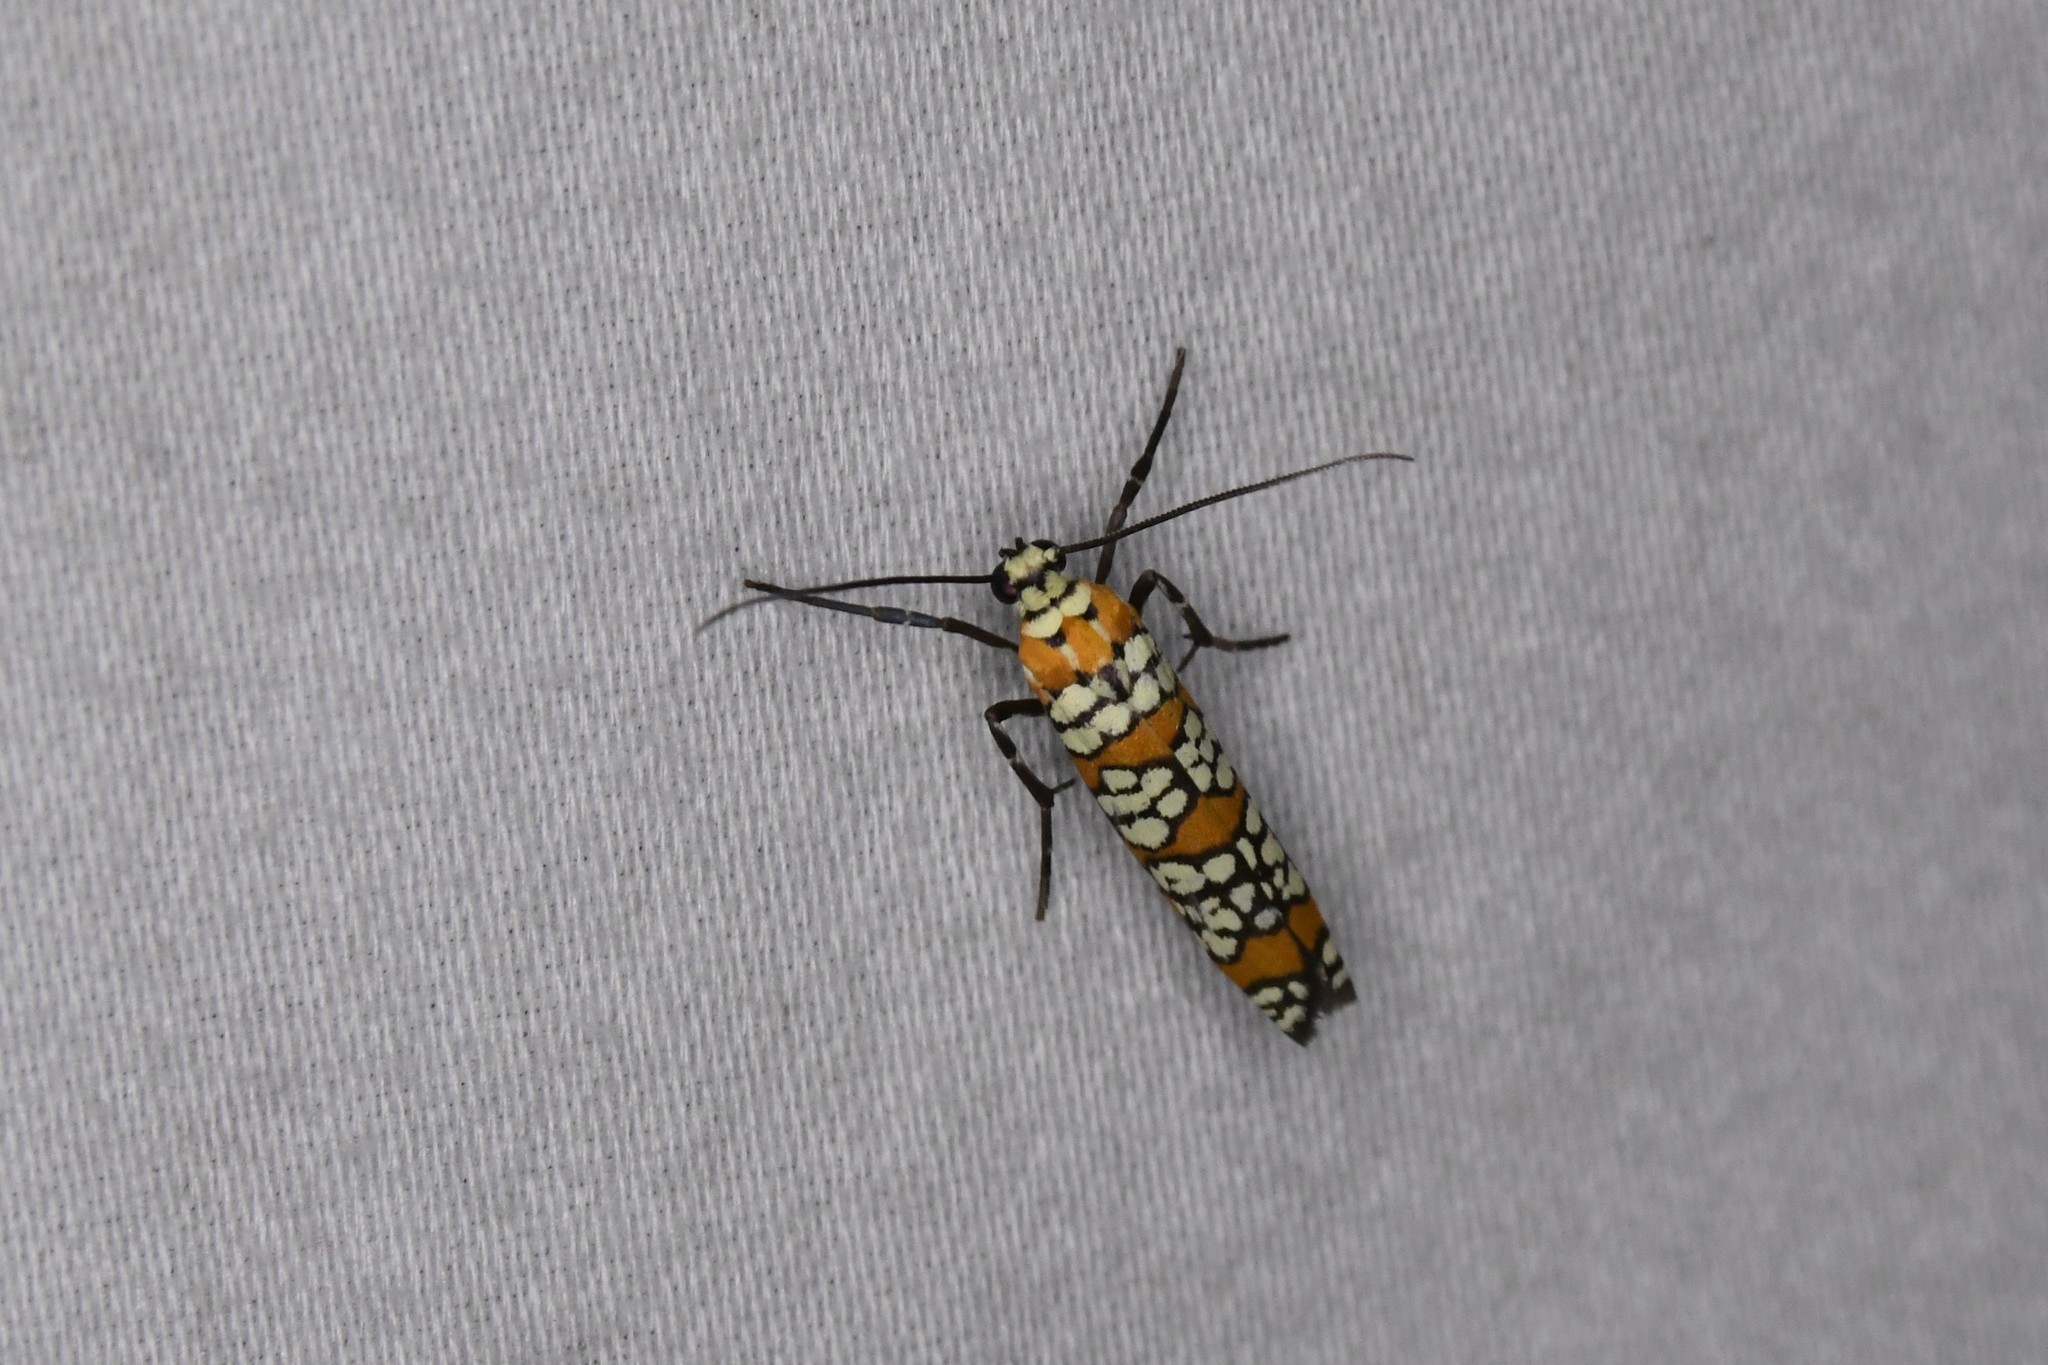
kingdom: Animalia
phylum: Arthropoda
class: Insecta
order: Lepidoptera
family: Attevidae
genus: Atteva
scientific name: Atteva punctella
